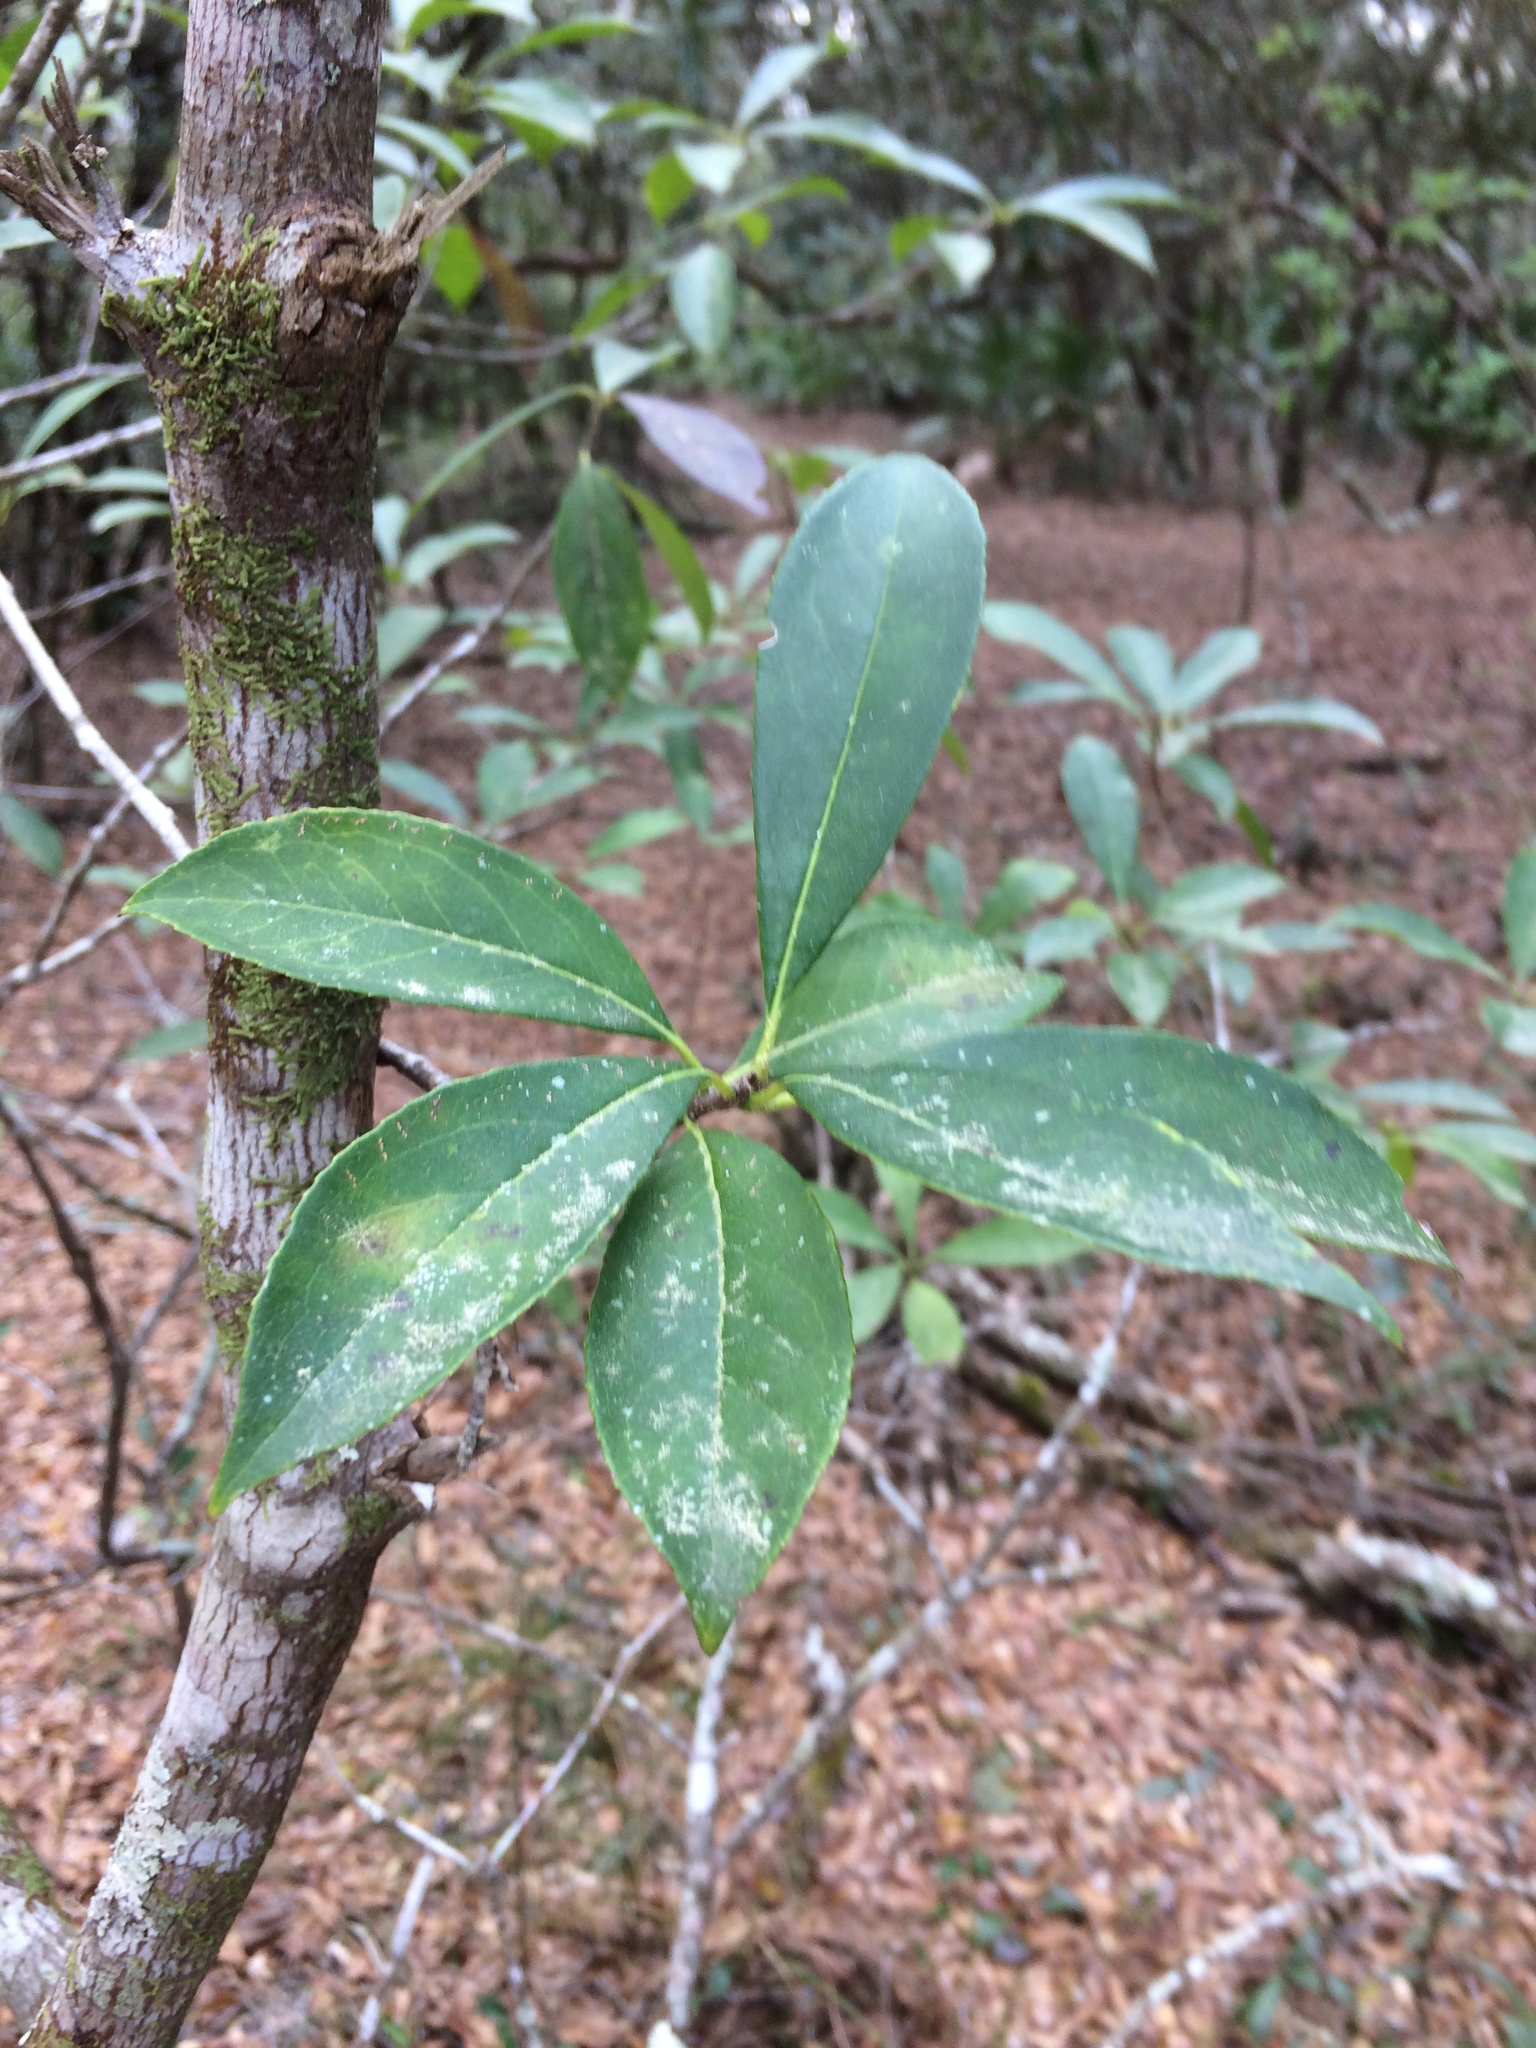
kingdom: Plantae
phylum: Tracheophyta
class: Magnoliopsida
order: Ericales
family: Symplocaceae
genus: Symplocos
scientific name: Symplocos tinctoria
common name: Horse-sugar
